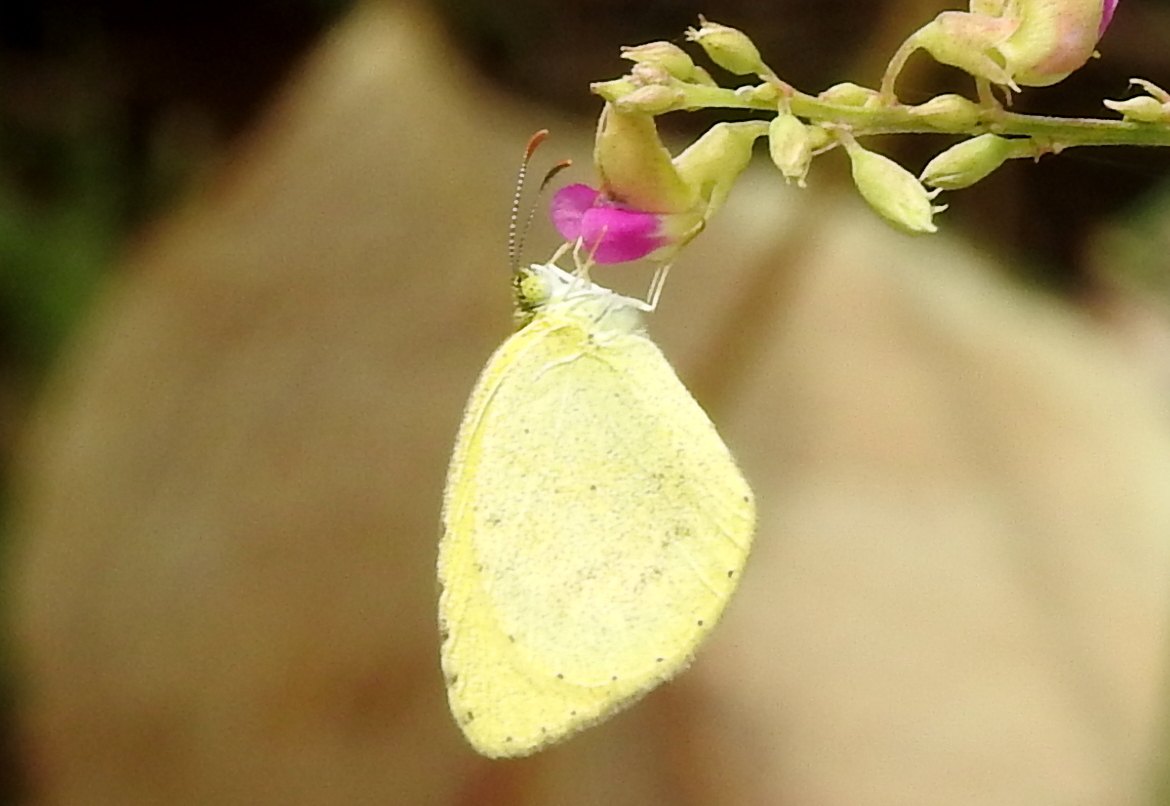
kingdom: Animalia
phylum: Arthropoda
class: Insecta
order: Lepidoptera
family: Pieridae
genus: Eurema
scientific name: Eurema brigitta
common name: Small grass yellow
